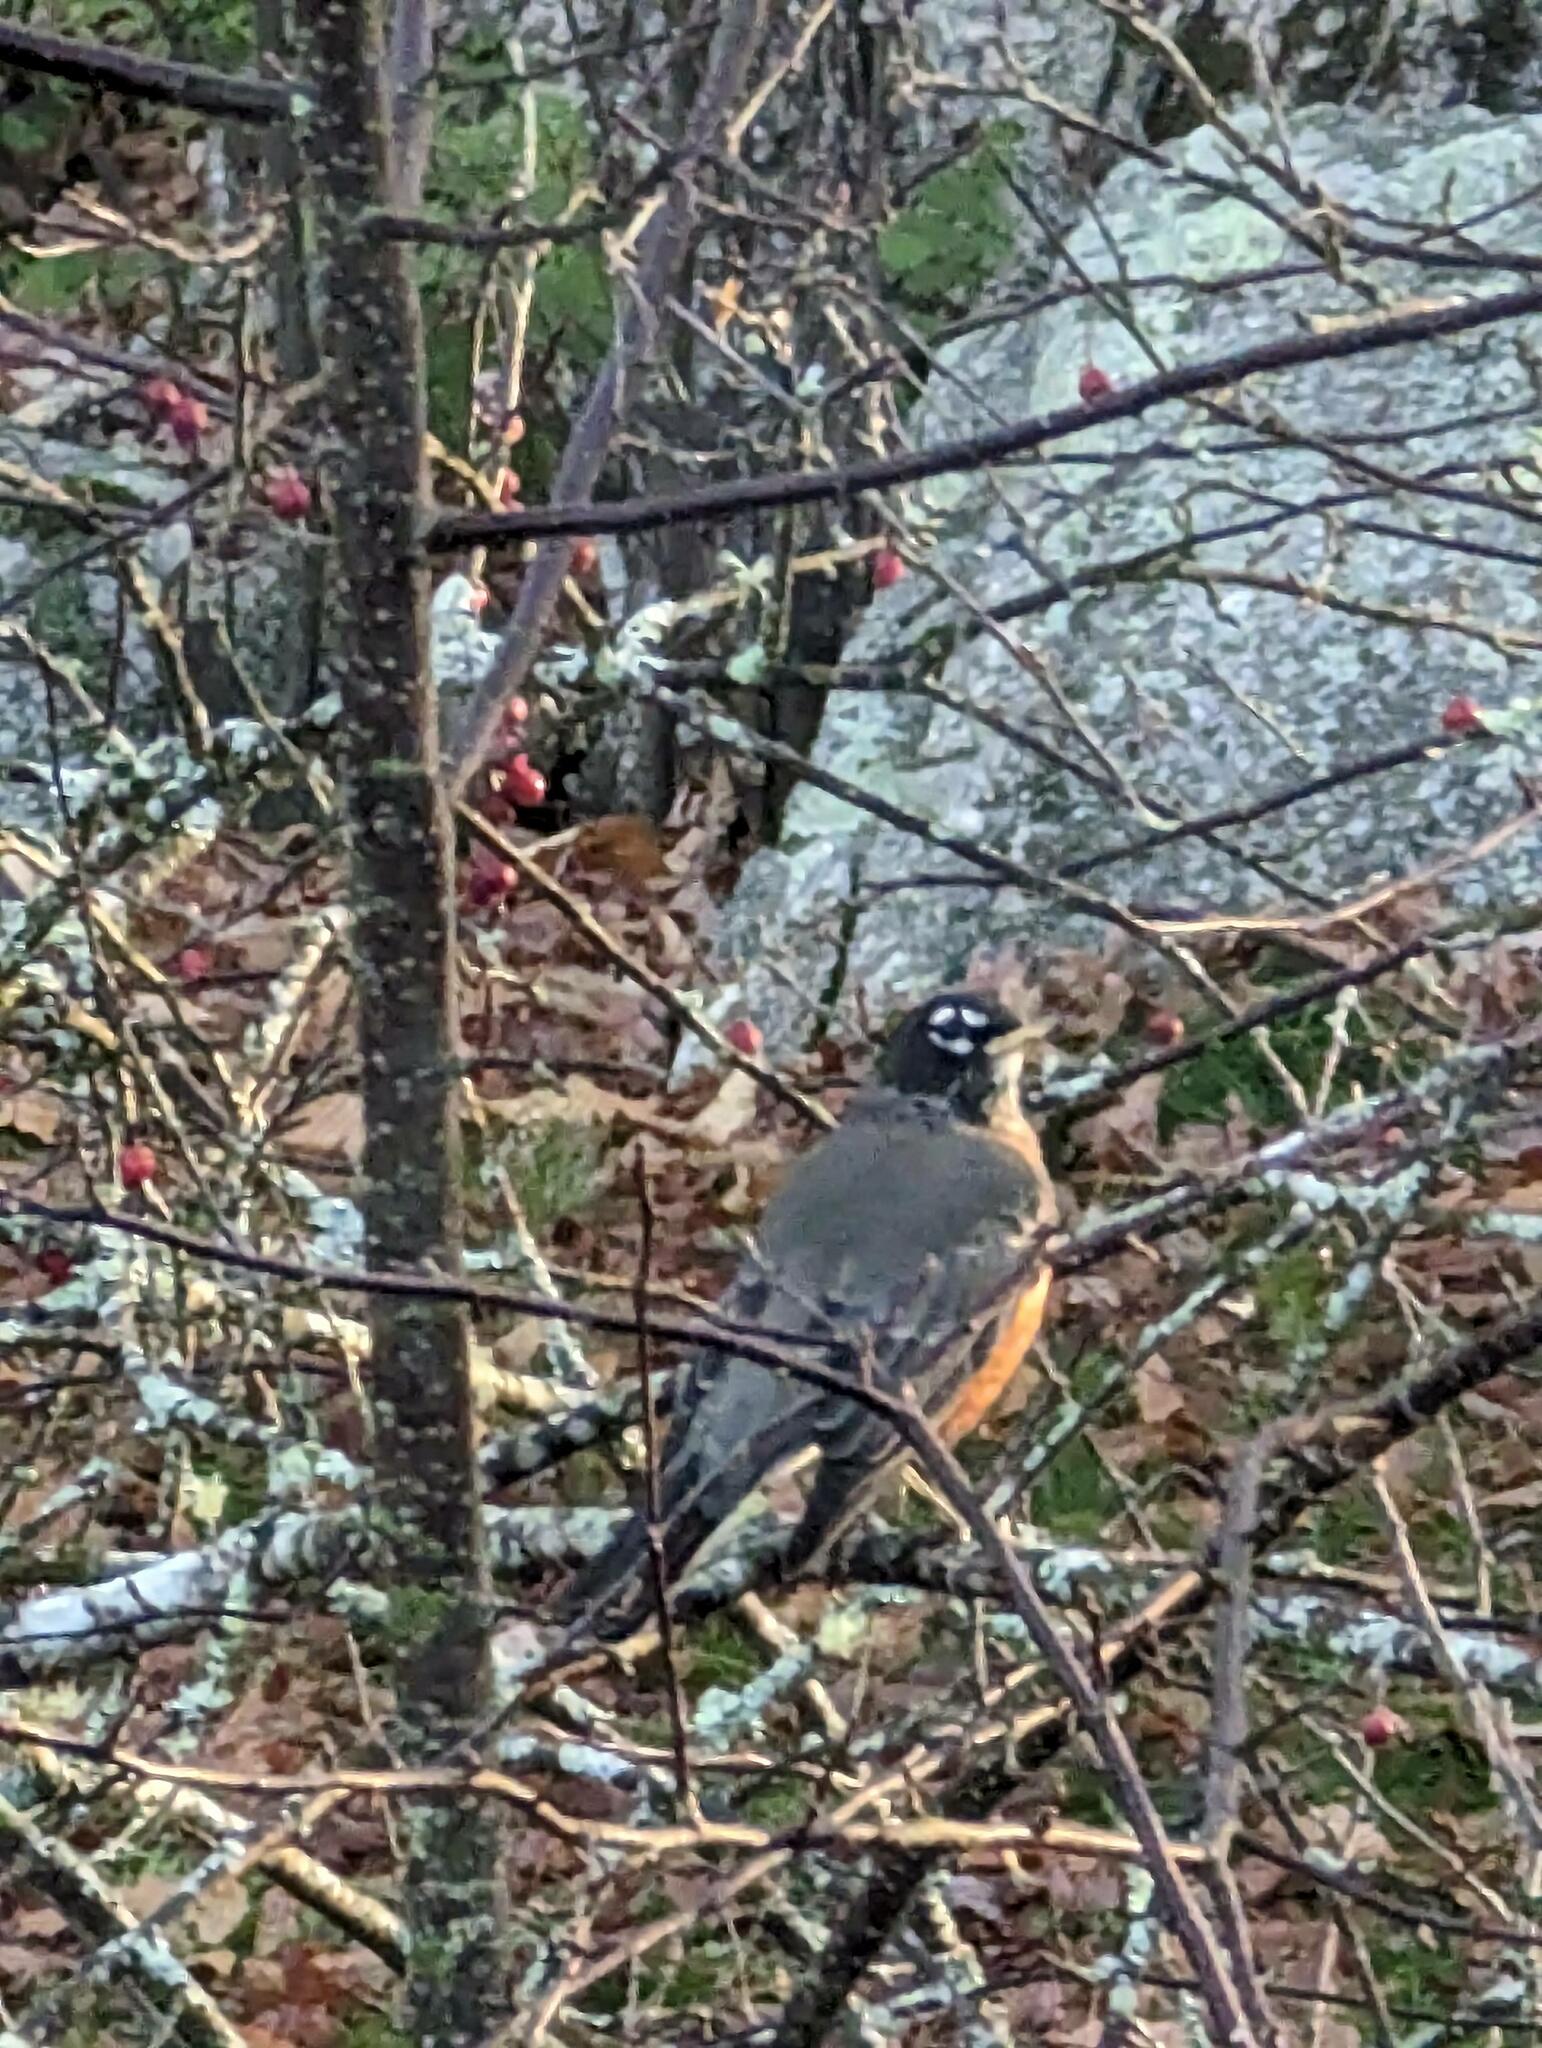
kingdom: Animalia
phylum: Chordata
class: Aves
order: Passeriformes
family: Turdidae
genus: Turdus
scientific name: Turdus migratorius
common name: American robin
